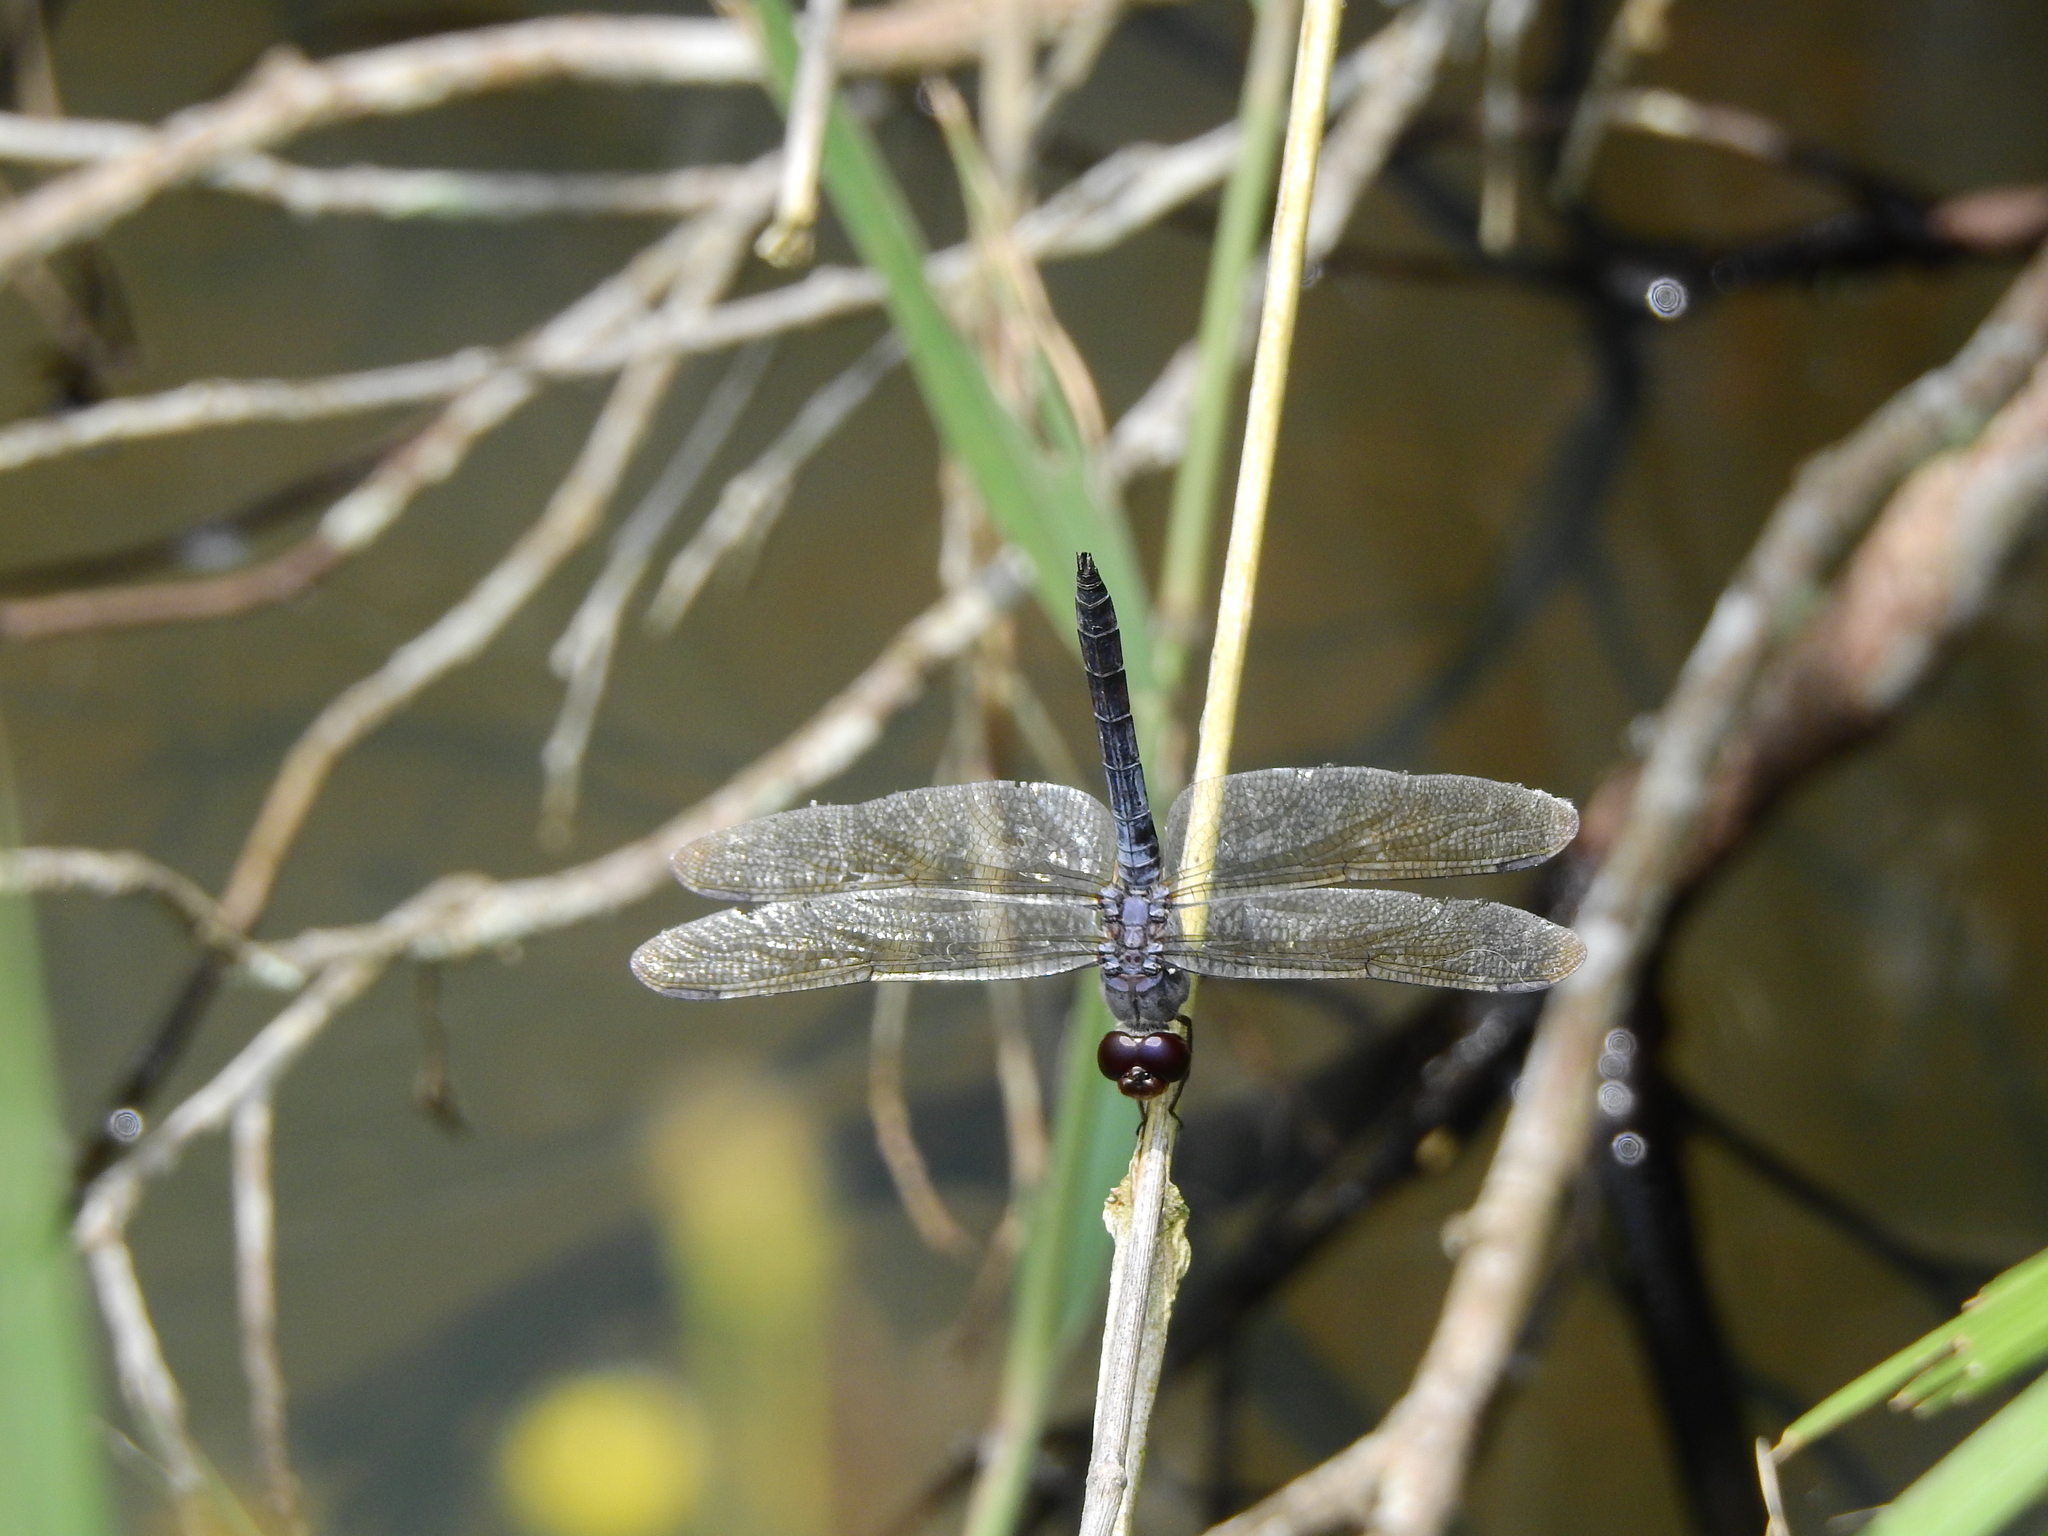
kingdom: Animalia
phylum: Arthropoda
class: Insecta
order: Odonata
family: Libellulidae
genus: Potamarcha
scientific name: Potamarcha congener
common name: Blue chaser
